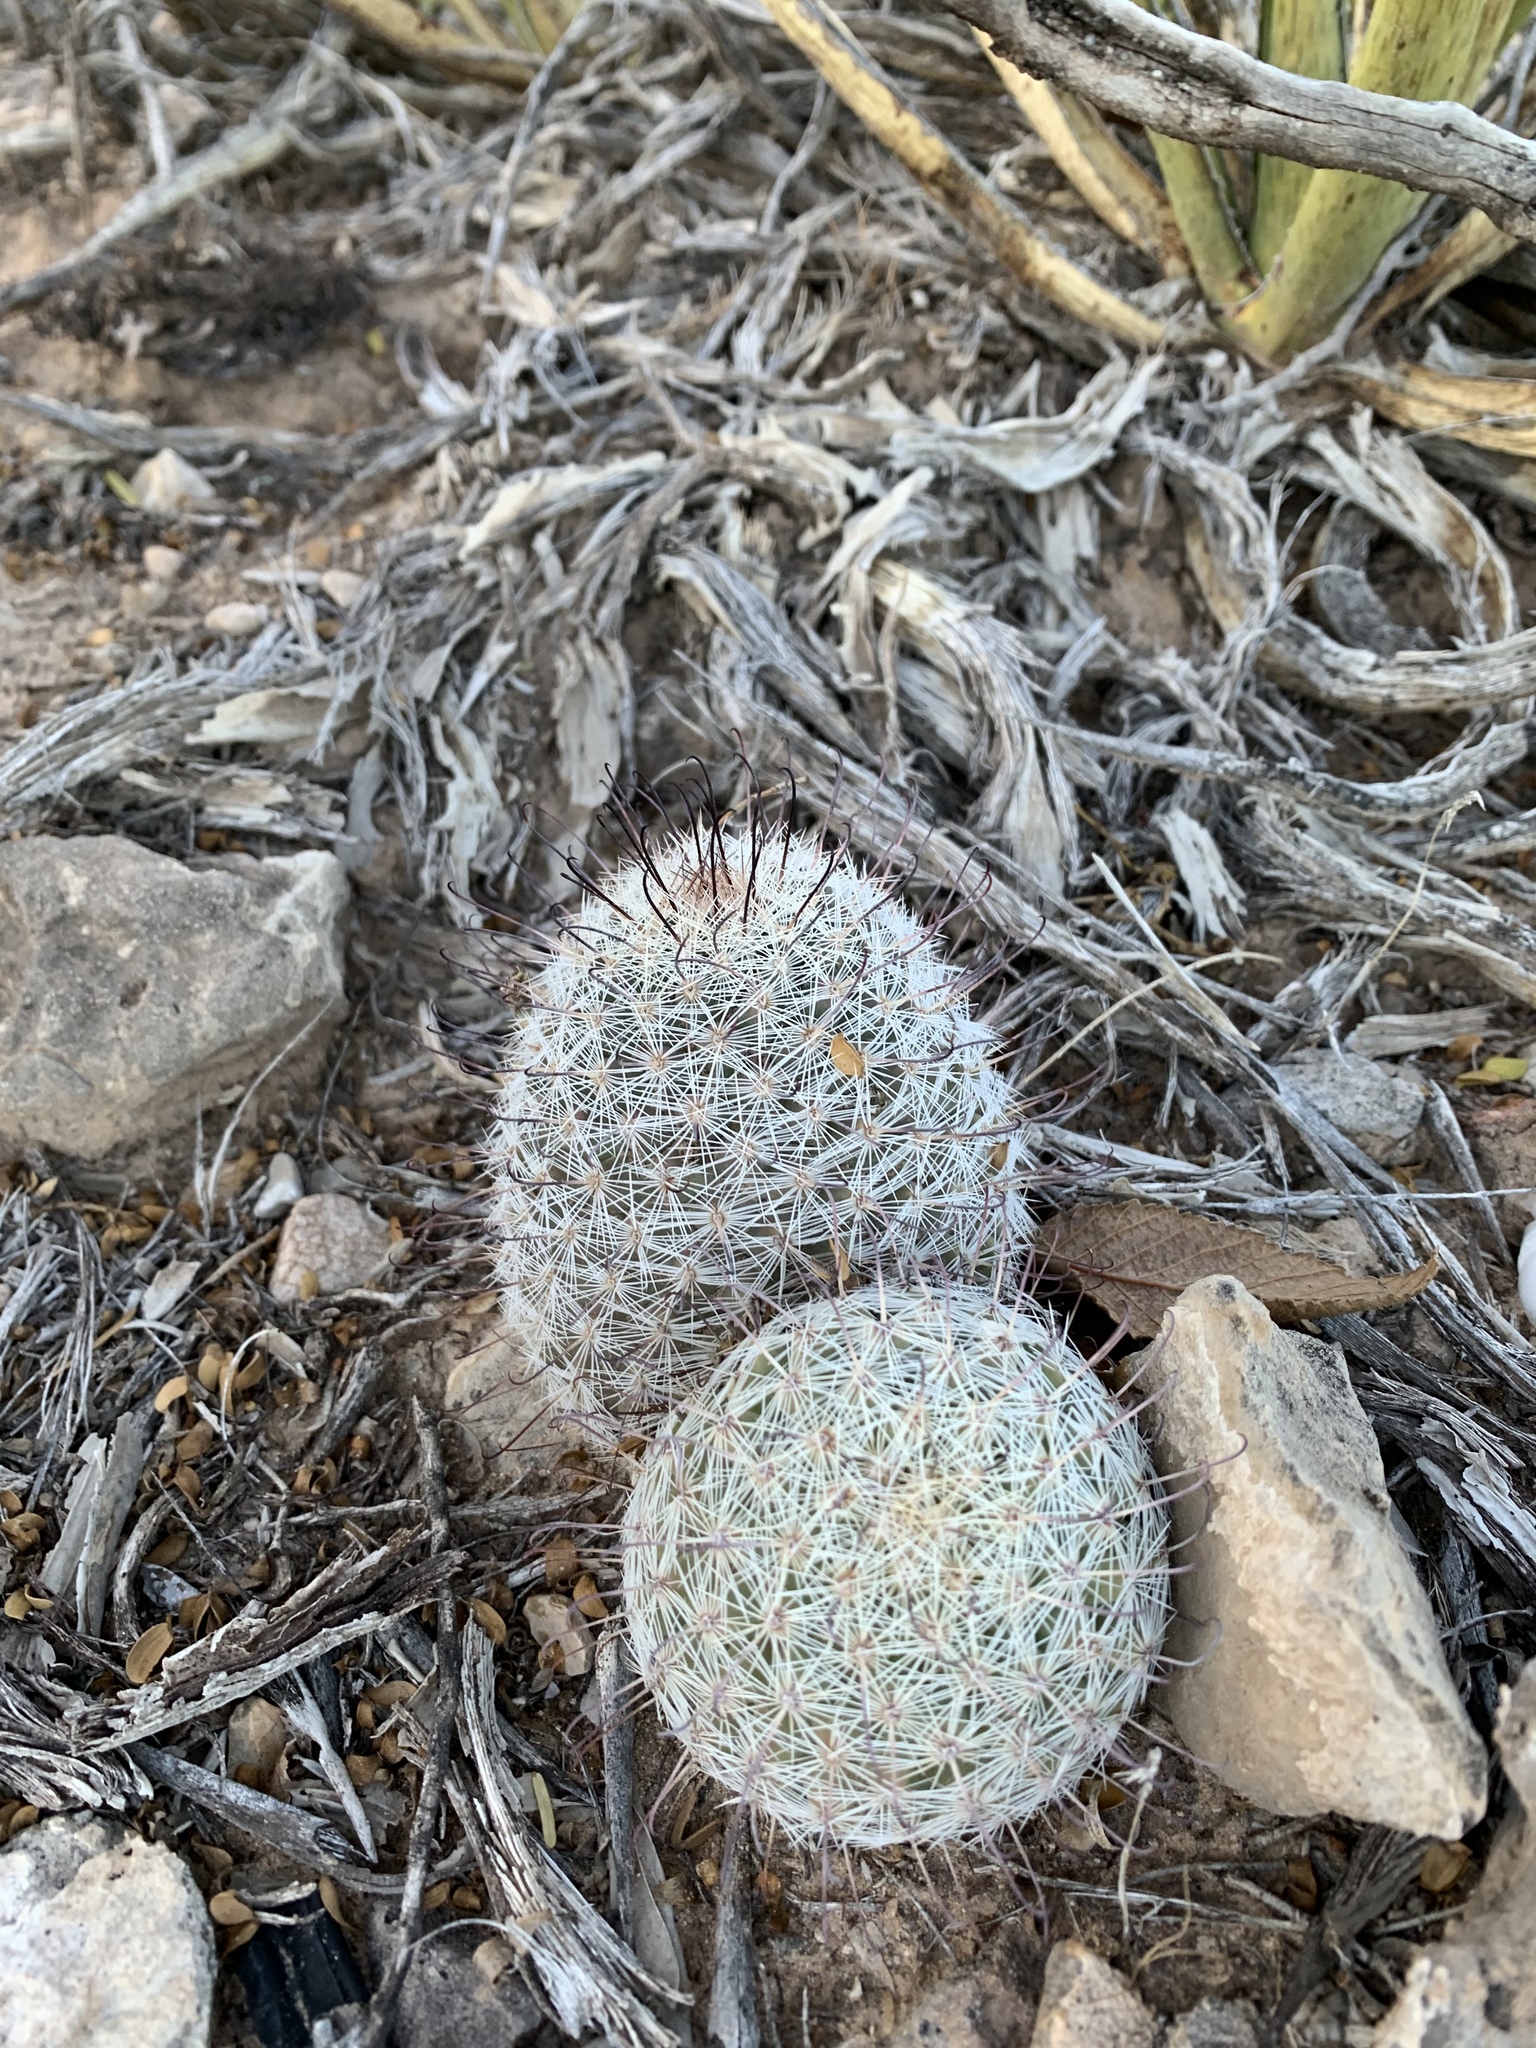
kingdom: Plantae
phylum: Tracheophyta
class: Magnoliopsida
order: Caryophyllales
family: Cactaceae
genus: Cochemiea
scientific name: Cochemiea grahamii
